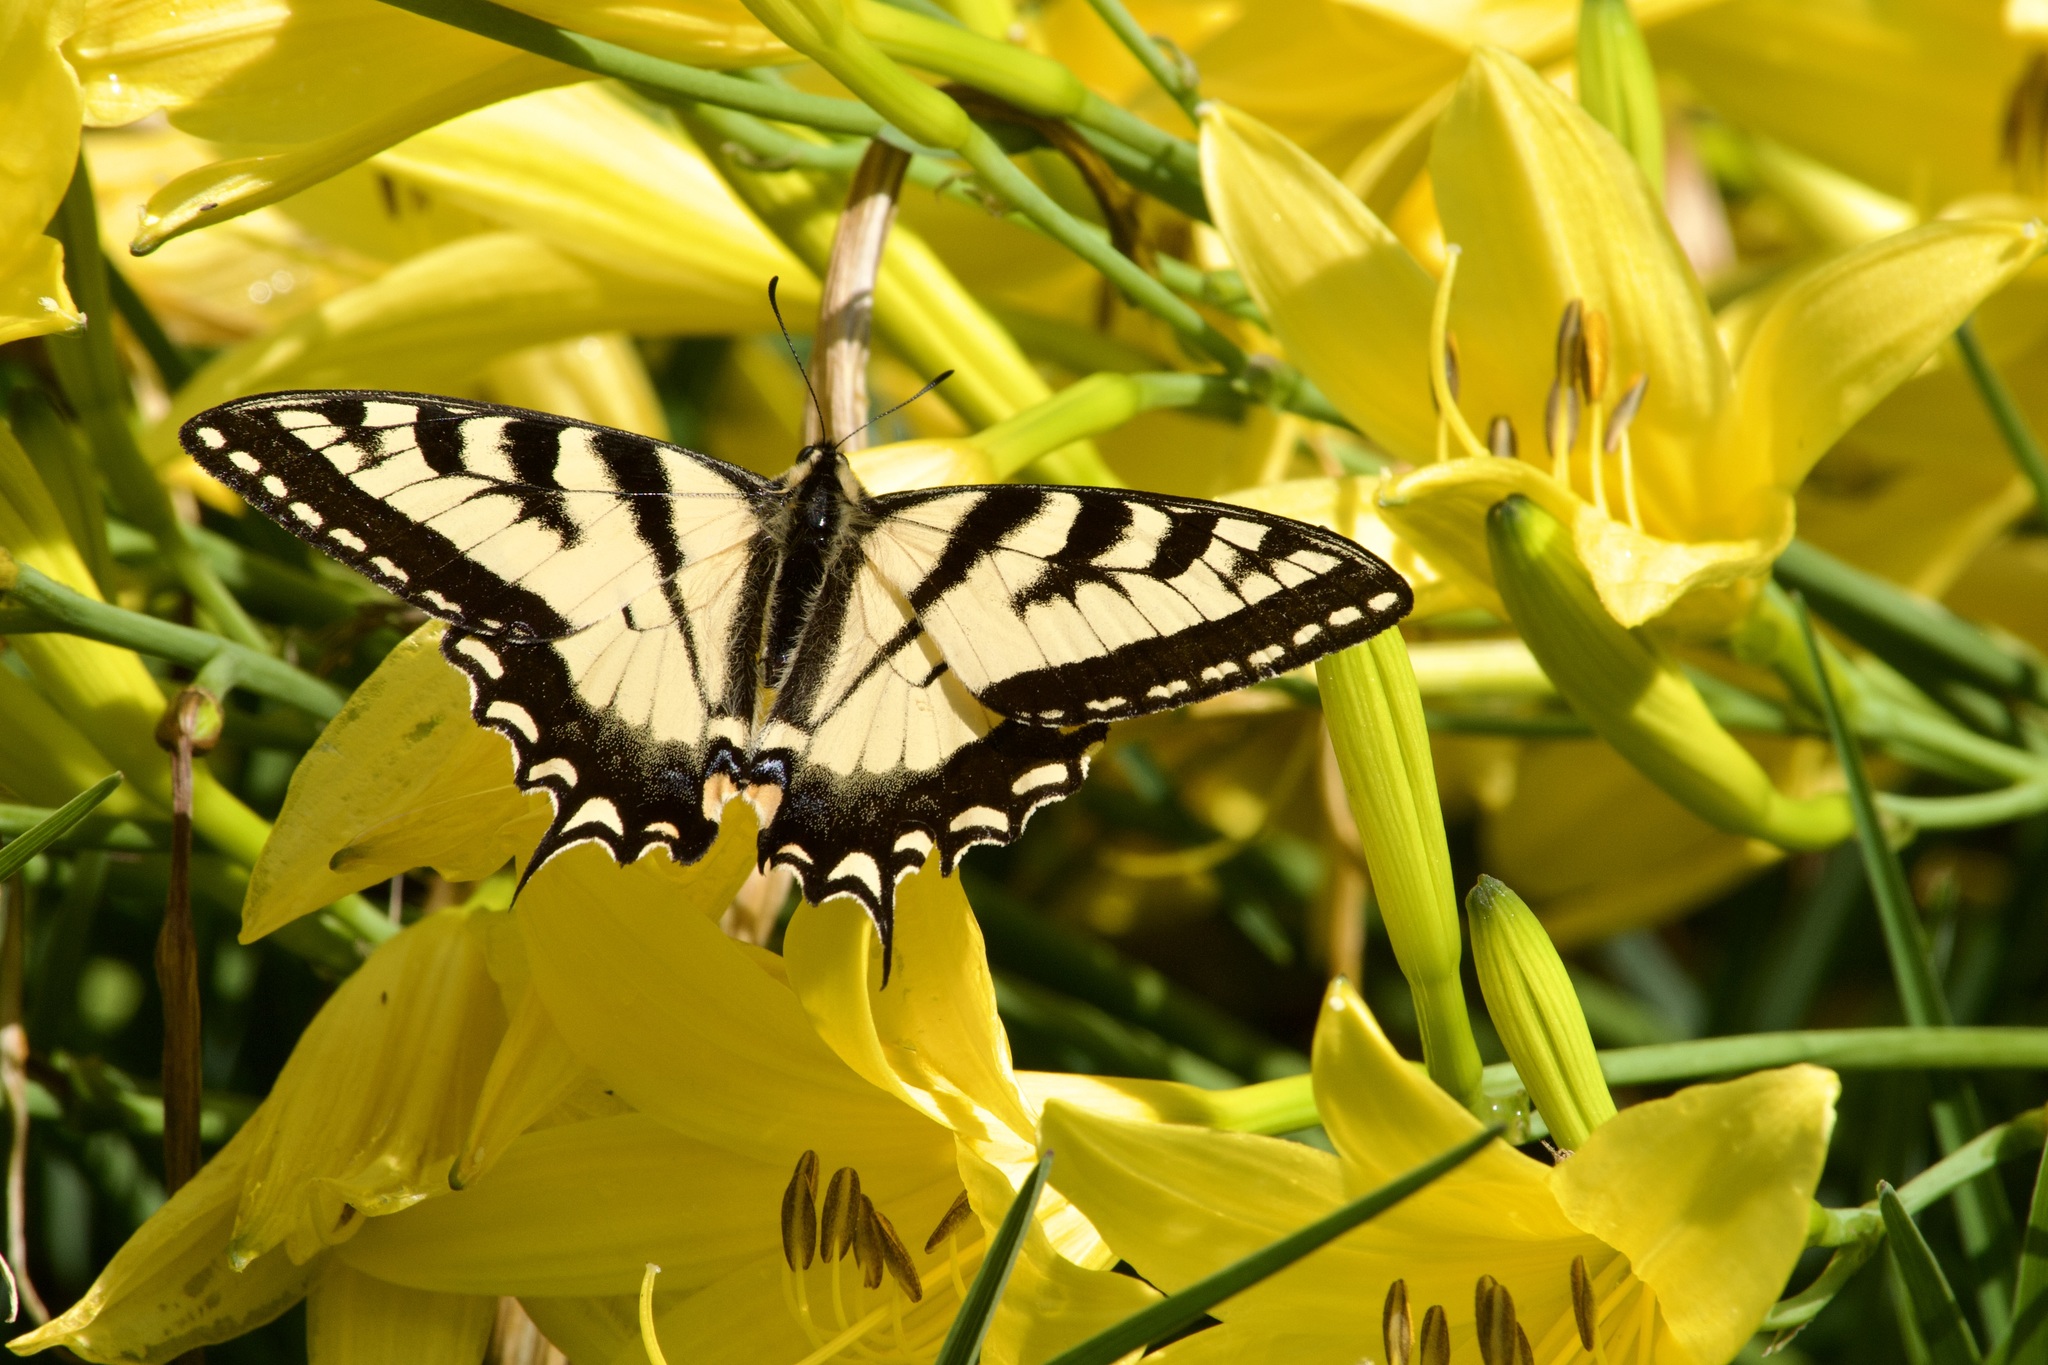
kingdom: Animalia
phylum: Arthropoda
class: Insecta
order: Lepidoptera
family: Papilionidae
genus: Papilio
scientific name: Papilio canadensis
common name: Canadian tiger swallowtail
